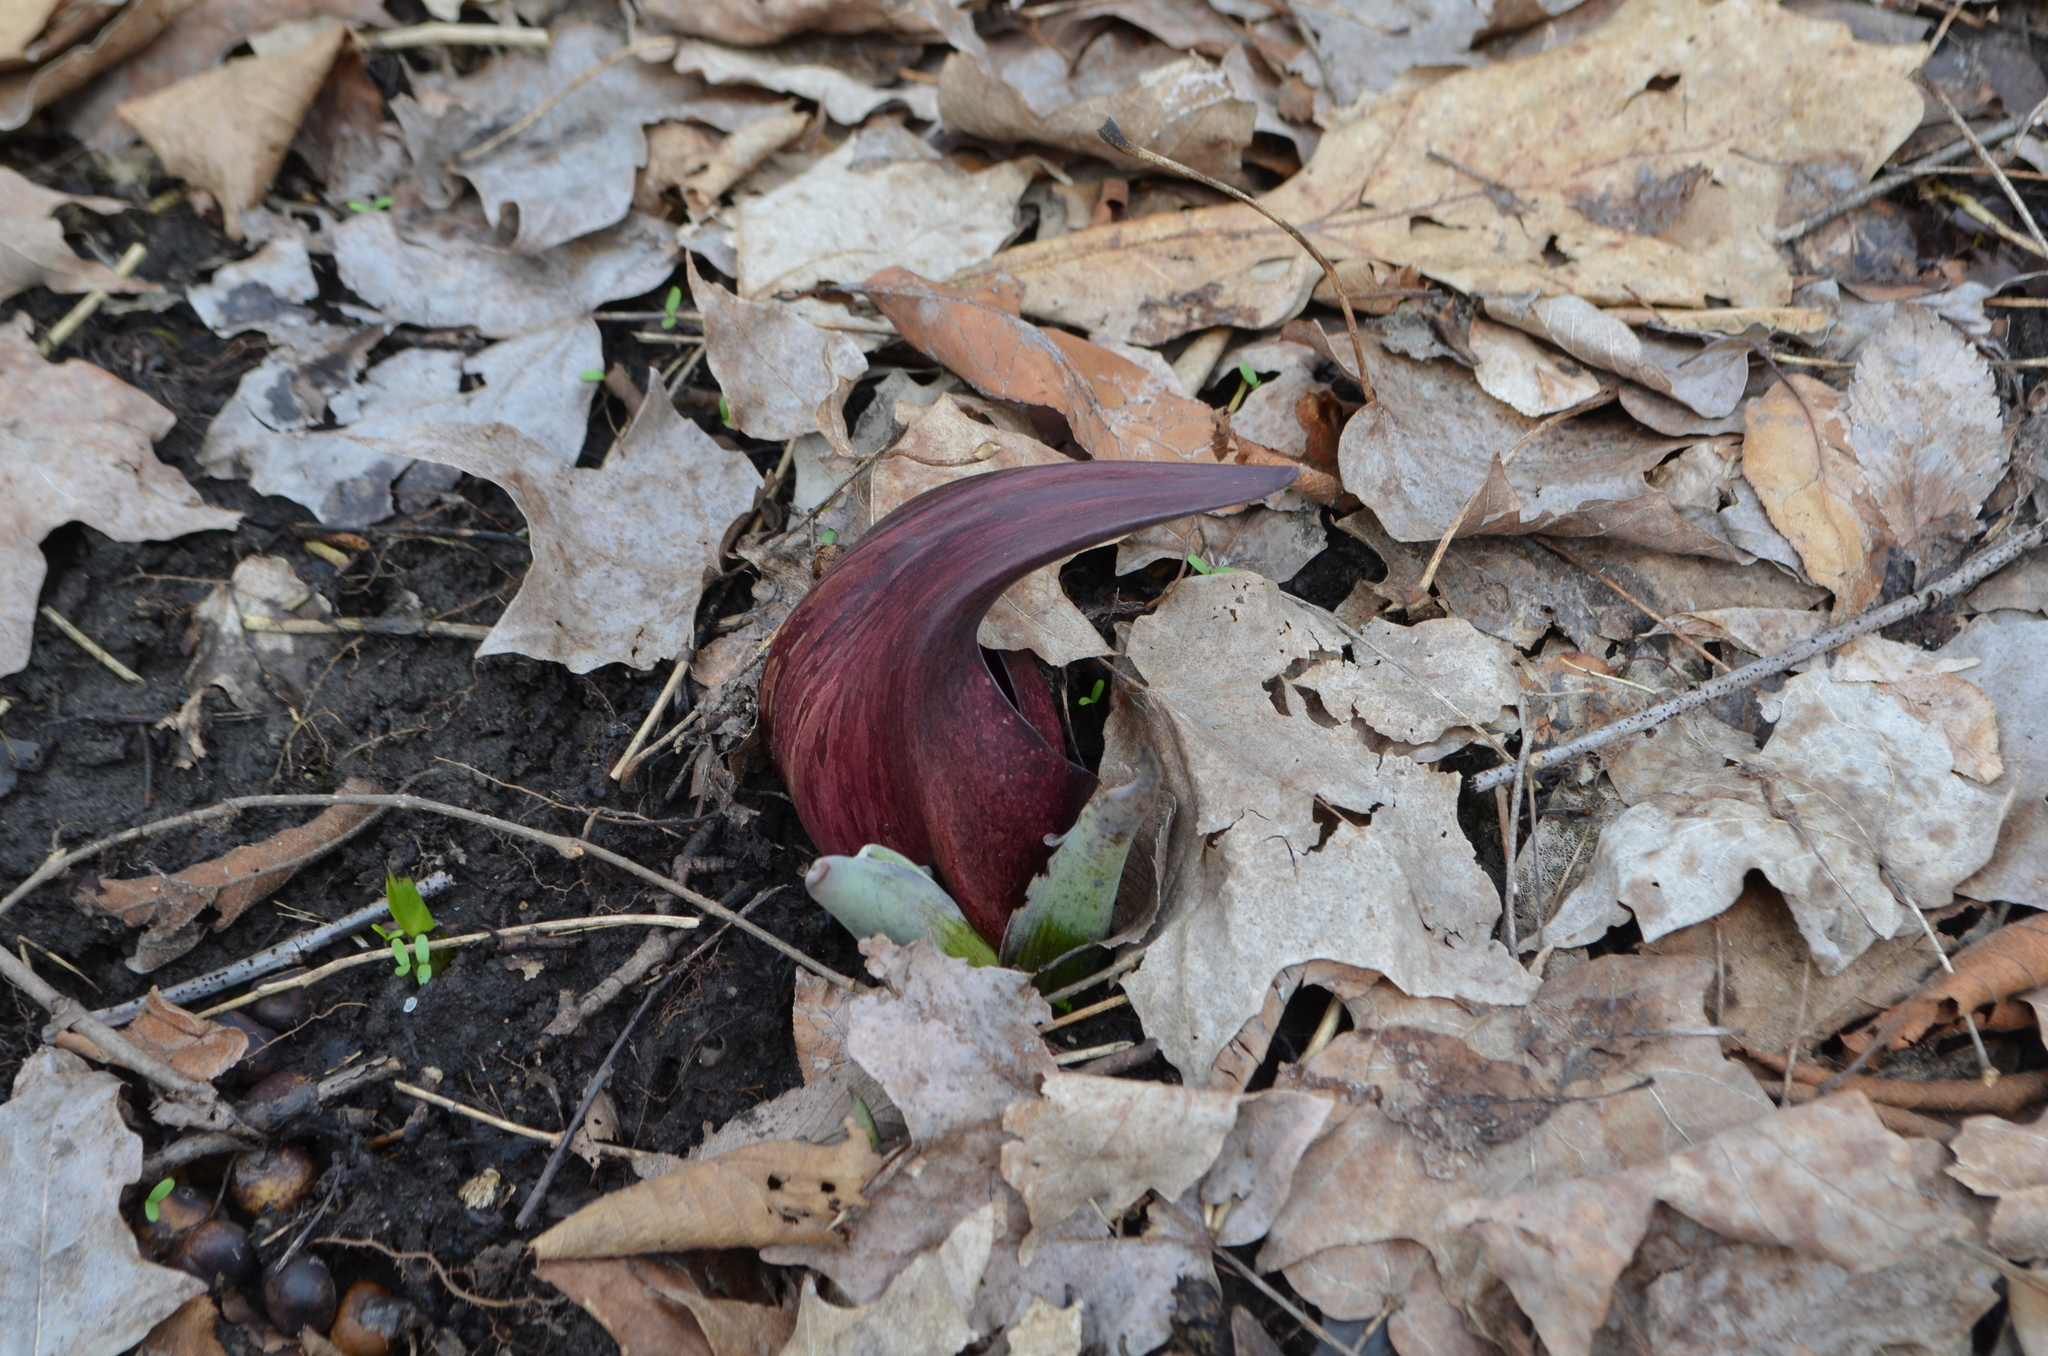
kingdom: Plantae
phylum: Tracheophyta
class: Liliopsida
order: Alismatales
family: Araceae
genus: Symplocarpus
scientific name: Symplocarpus foetidus
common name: Eastern skunk cabbage
